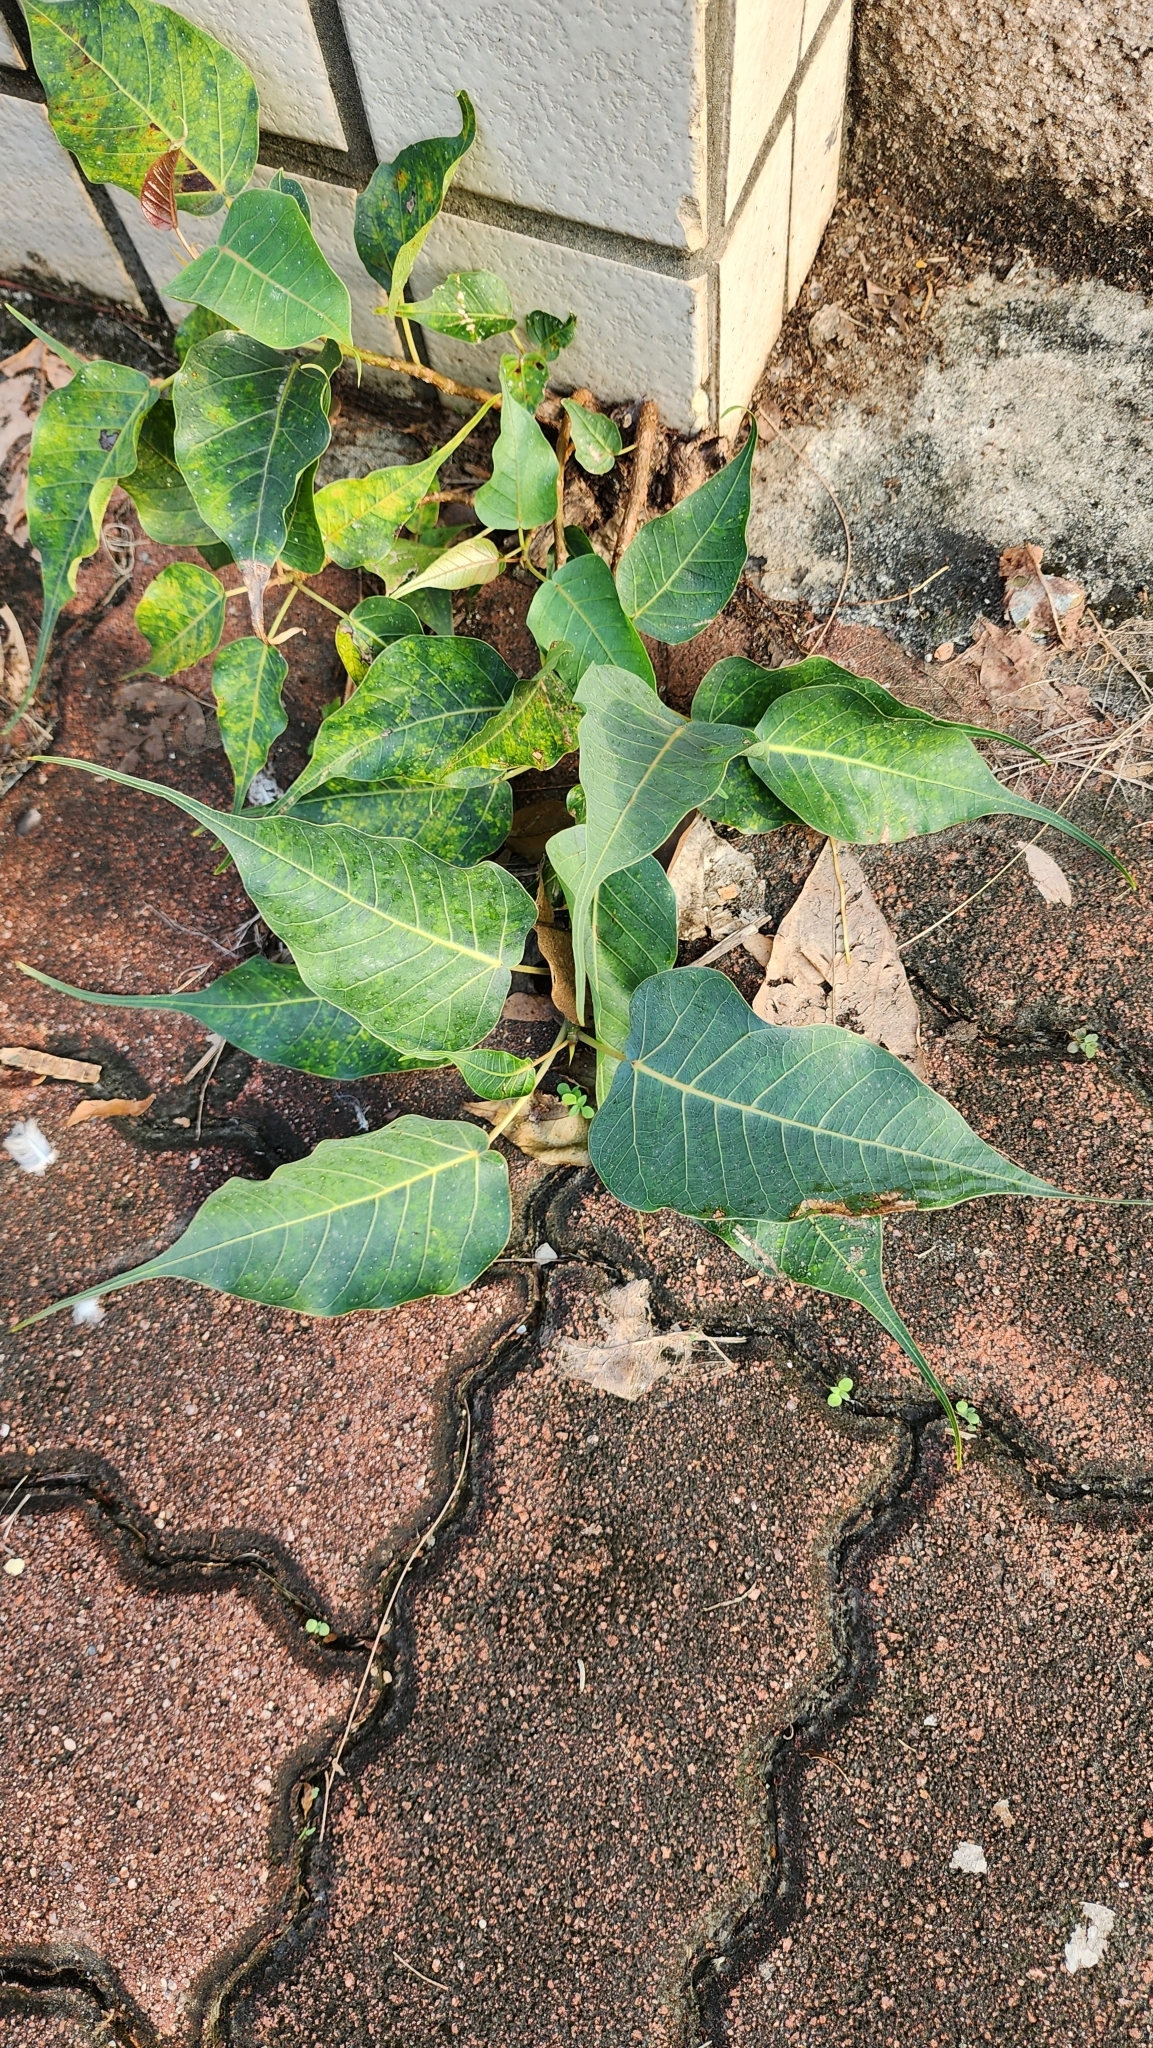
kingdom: Plantae
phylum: Tracheophyta
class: Magnoliopsida
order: Rosales
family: Moraceae
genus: Ficus
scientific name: Ficus religiosa
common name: Bodhi tree
